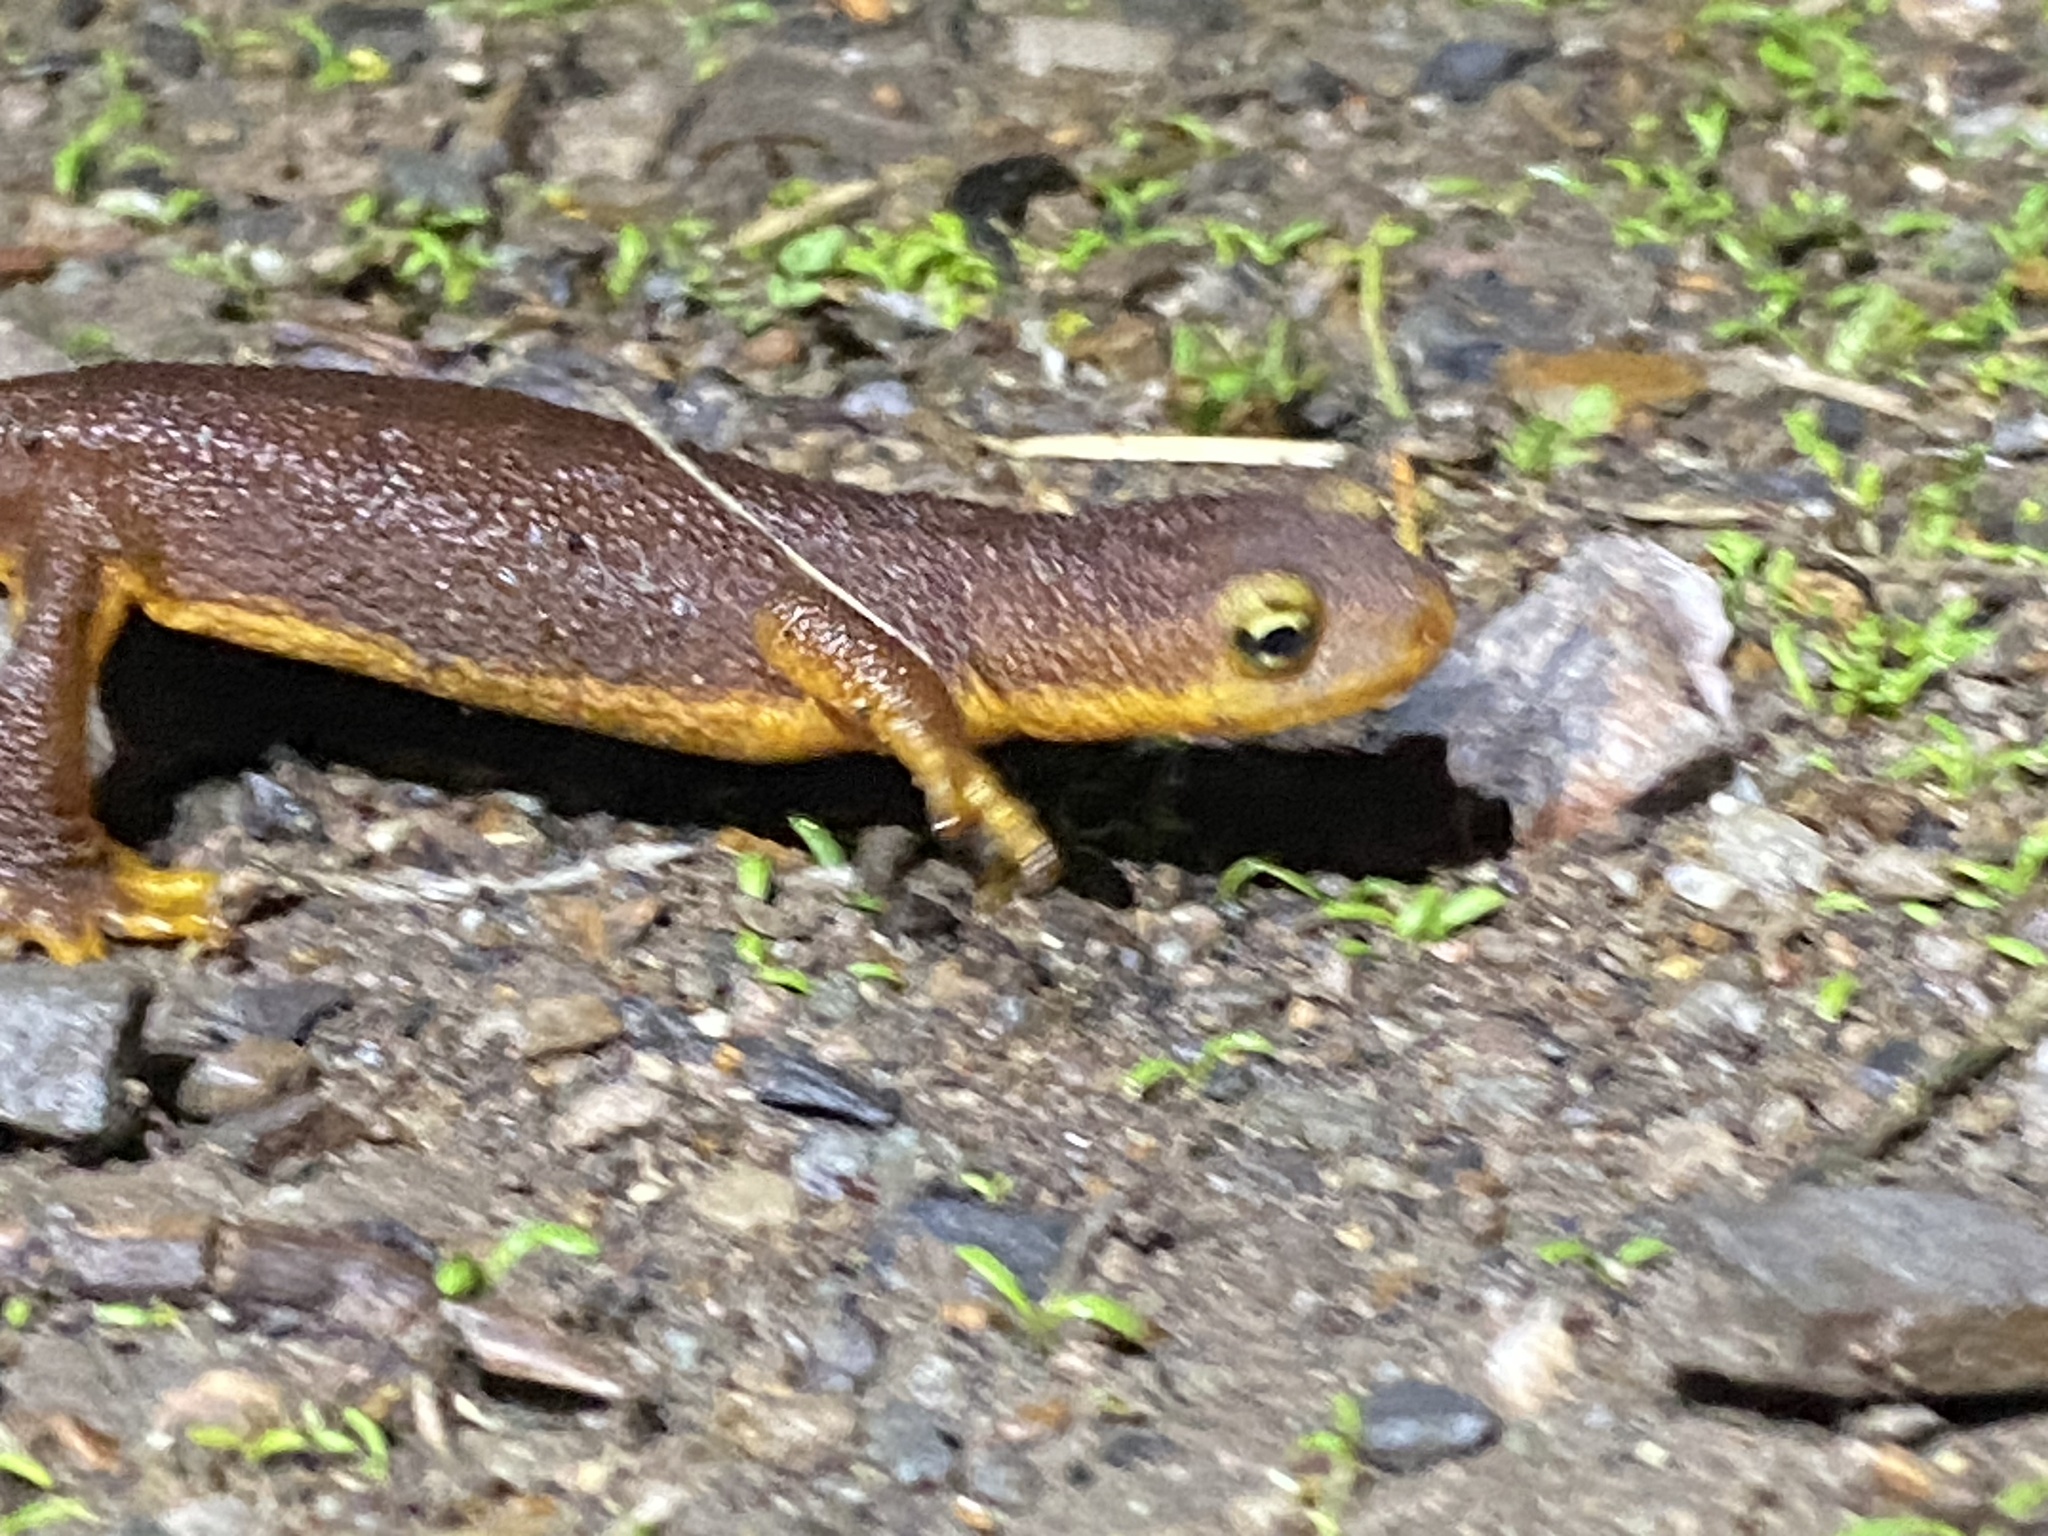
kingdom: Animalia
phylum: Chordata
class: Amphibia
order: Caudata
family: Salamandridae
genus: Taricha
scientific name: Taricha torosa
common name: California newt
